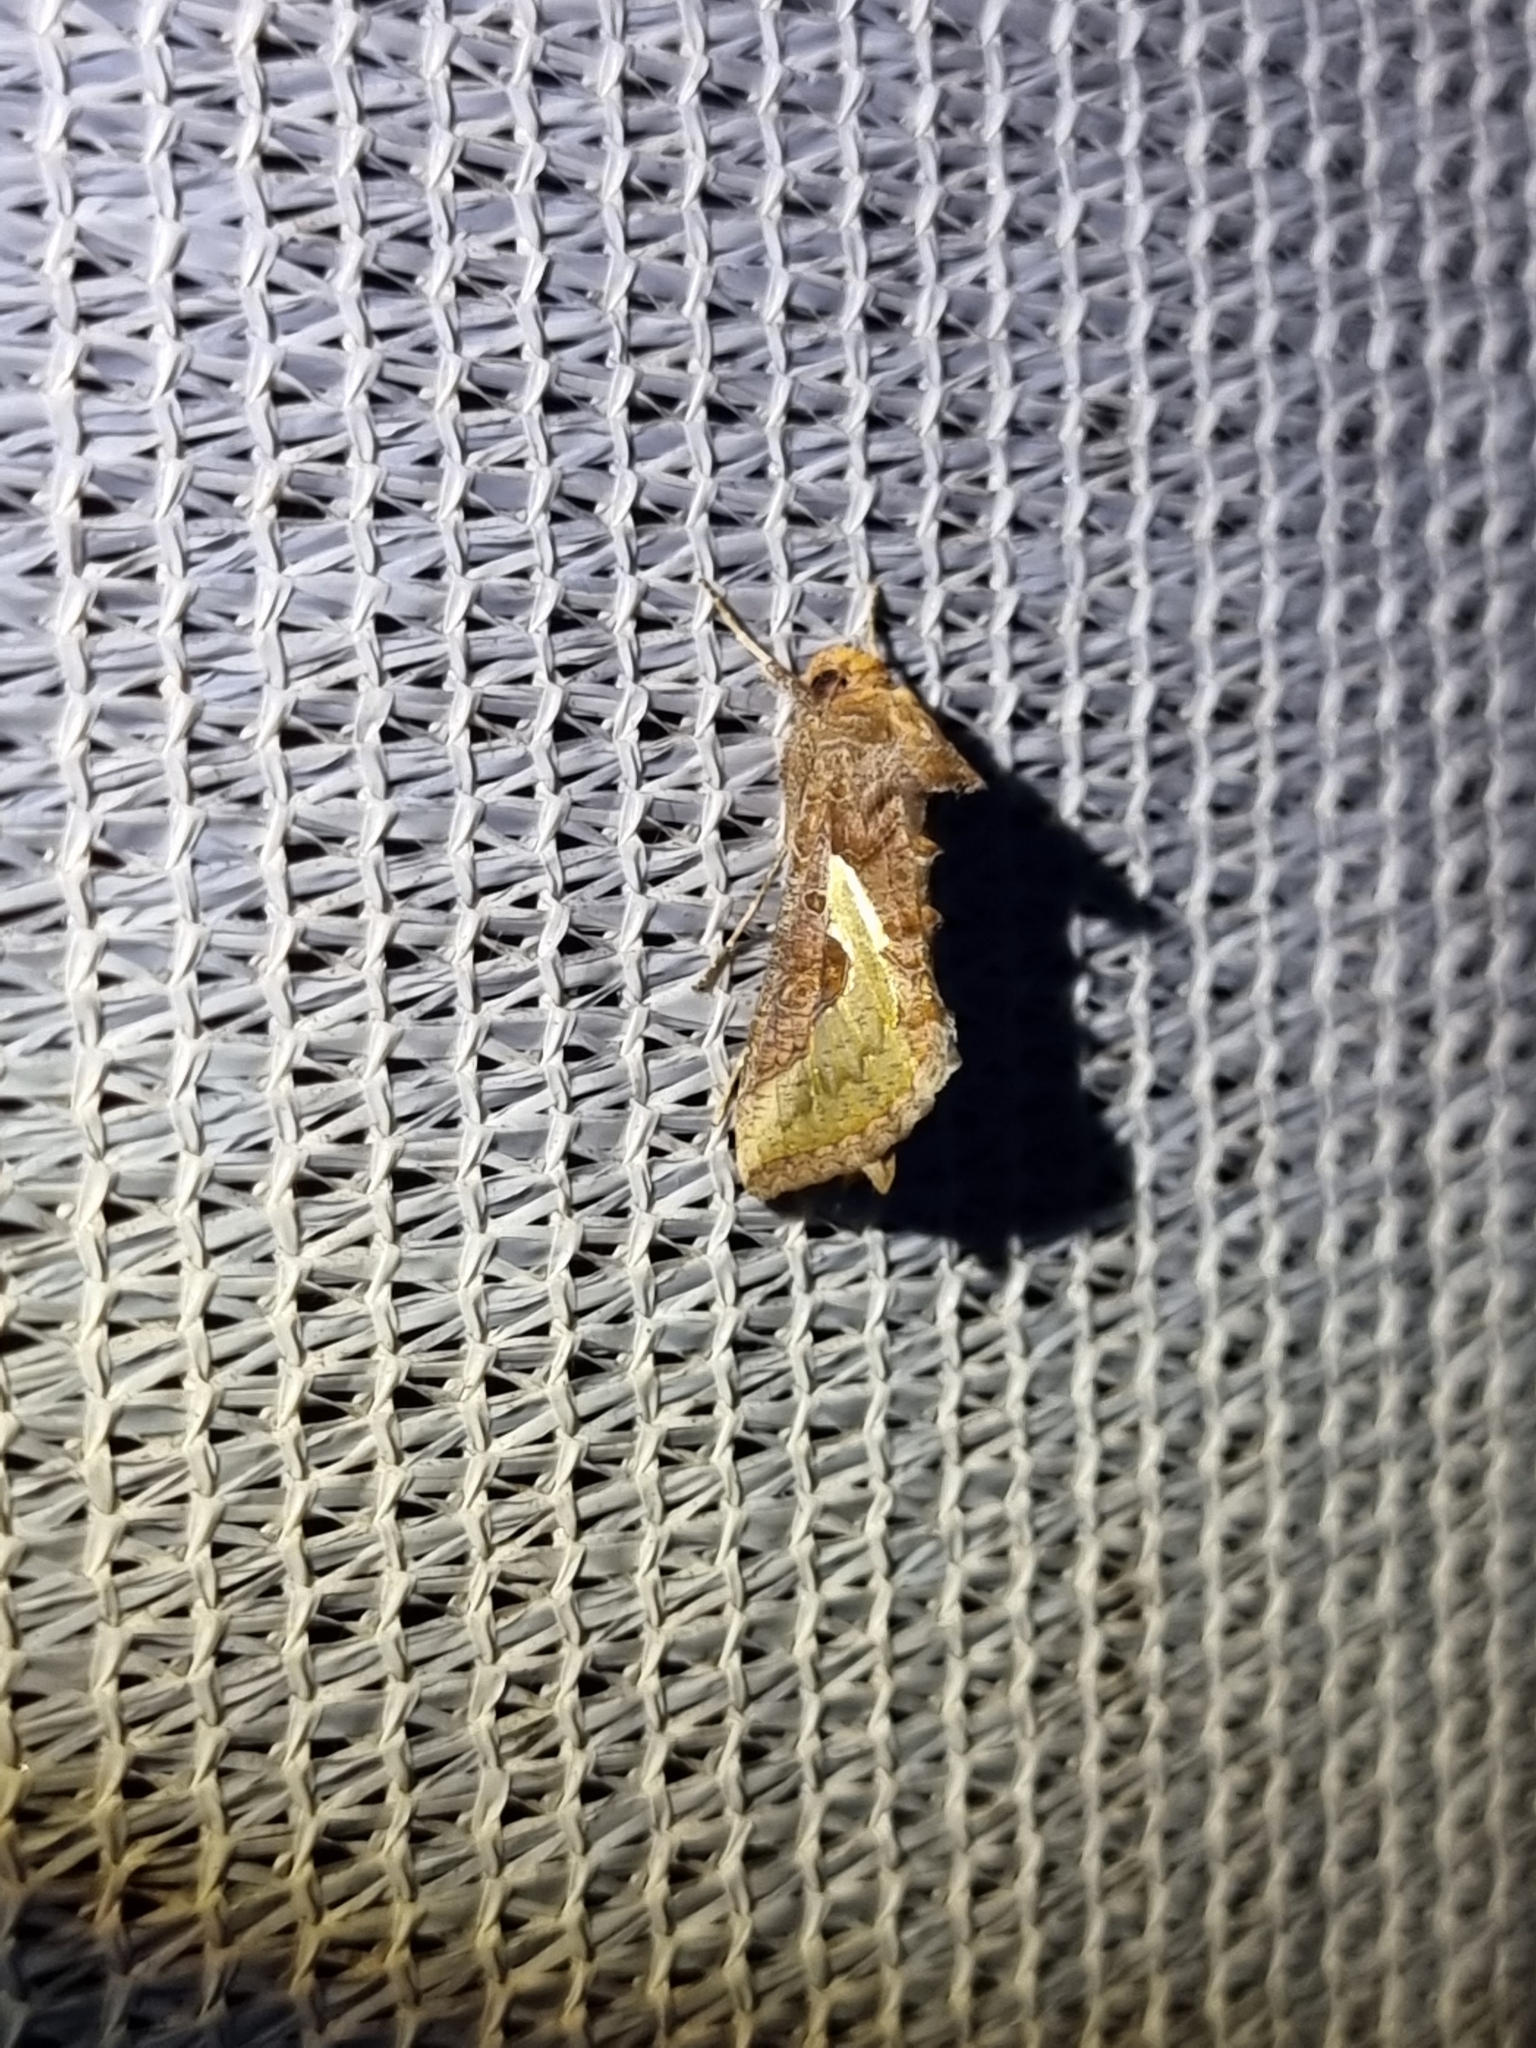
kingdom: Animalia
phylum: Arthropoda
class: Insecta
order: Lepidoptera
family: Noctuidae
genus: Thysanoplusia
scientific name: Thysanoplusia orichalcea
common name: Slender burnished brass, golden plusia
